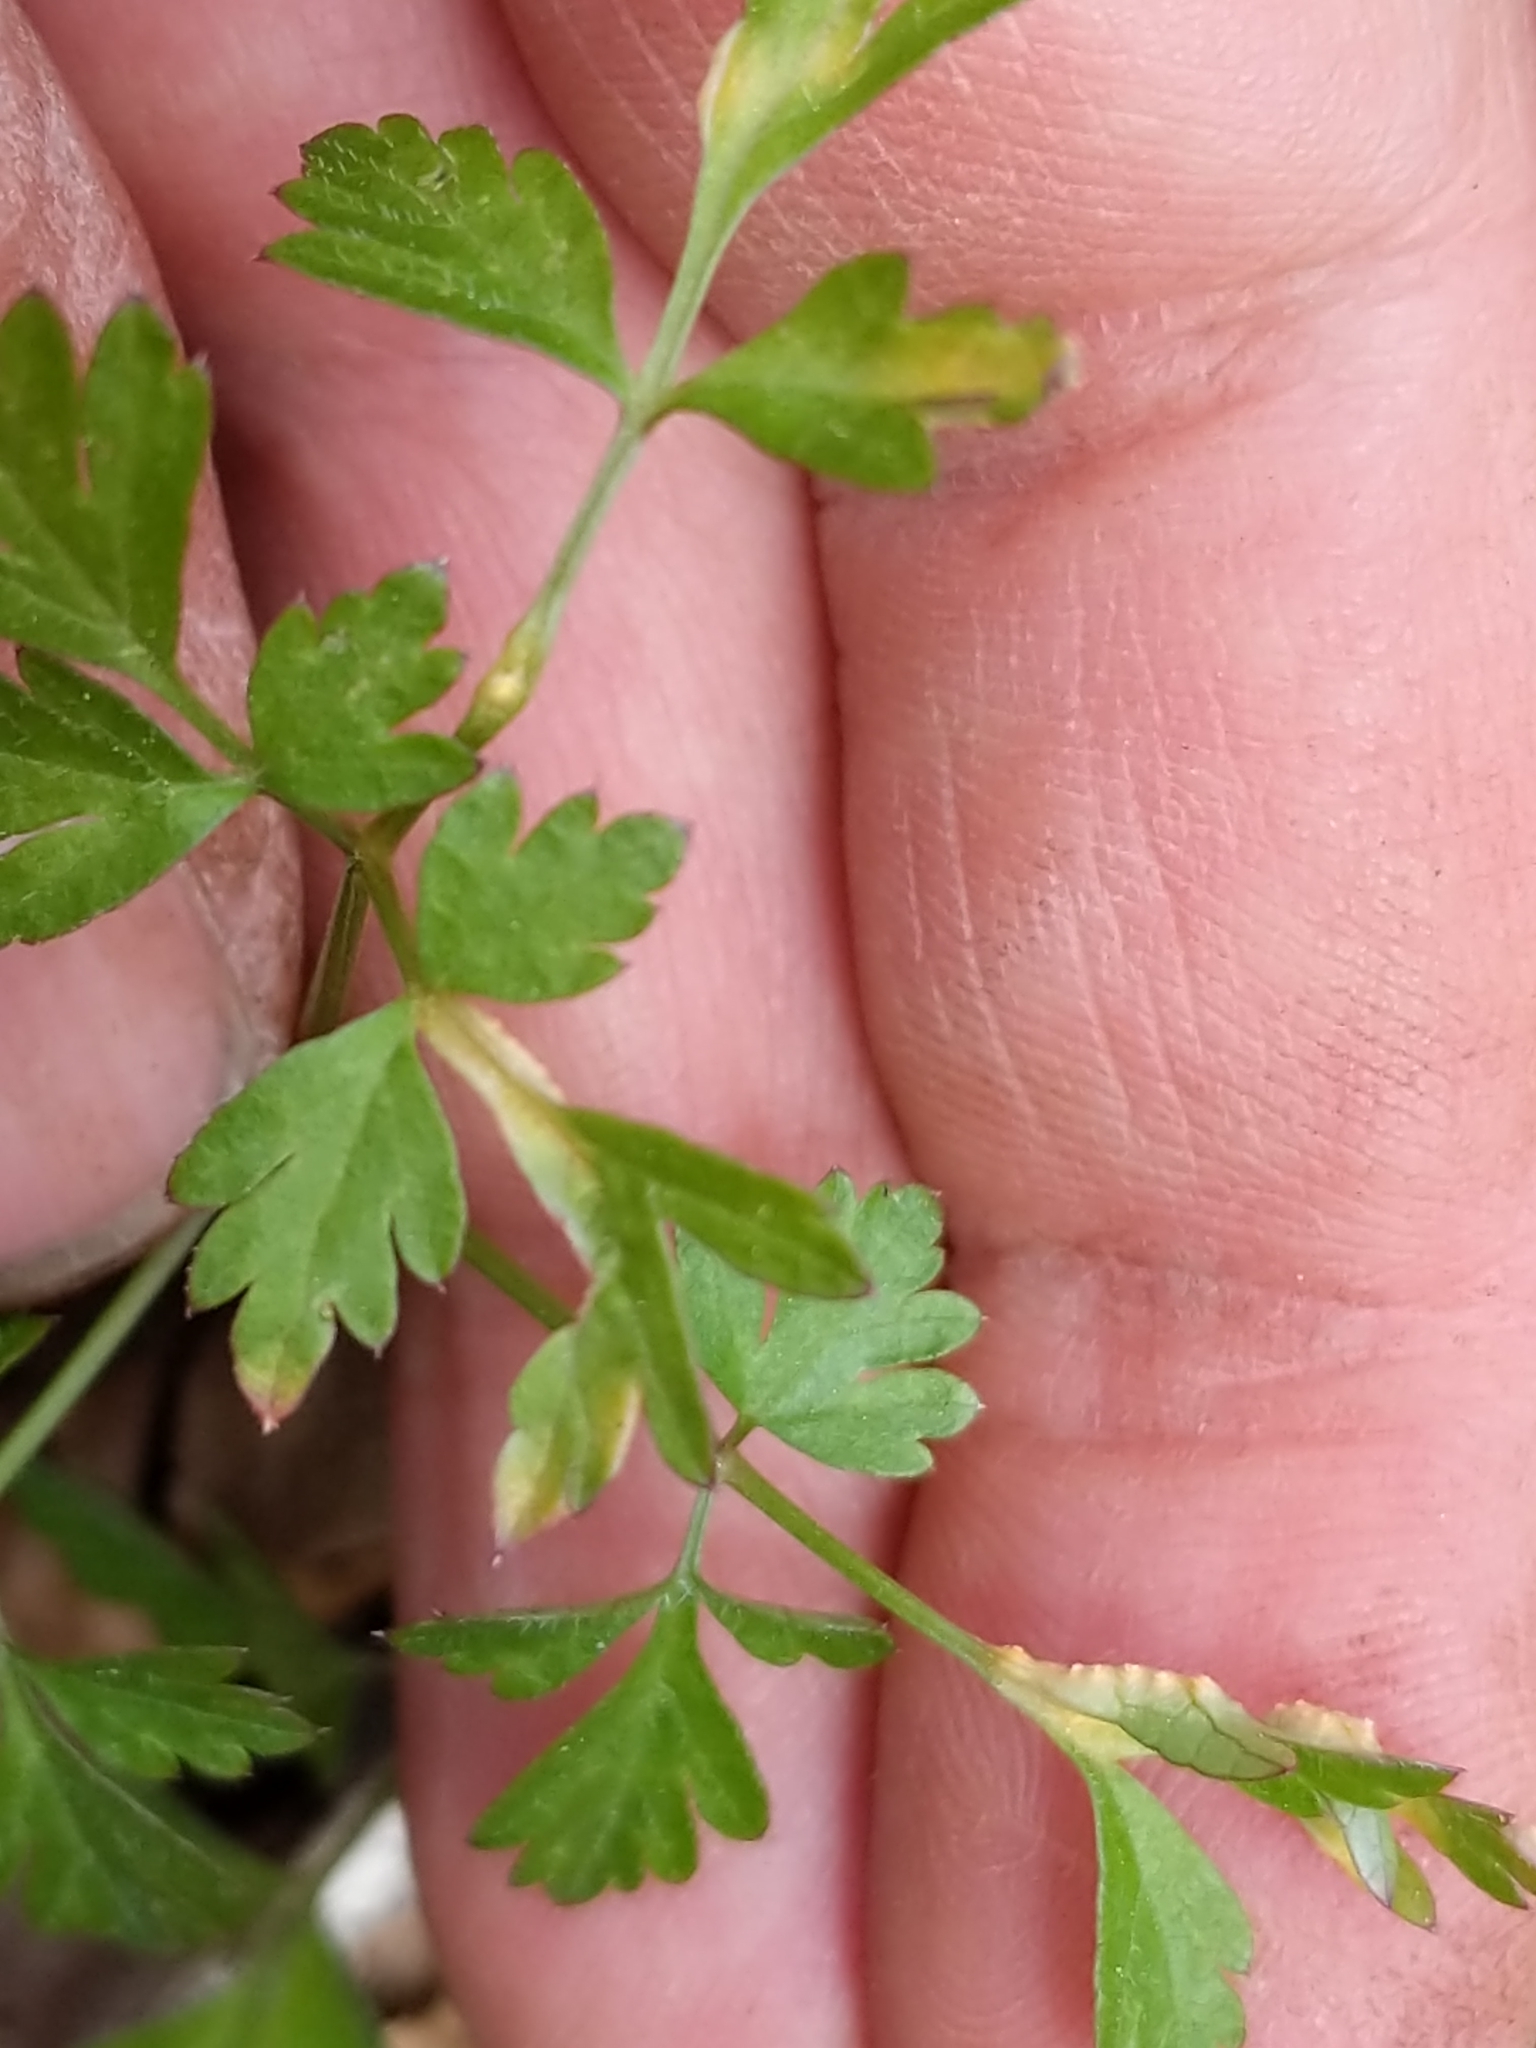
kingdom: Fungi
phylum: Basidiomycota
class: Pucciniomycetes
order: Pucciniales
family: Pucciniaceae
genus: Puccinia
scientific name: Puccinia pimpinellae
